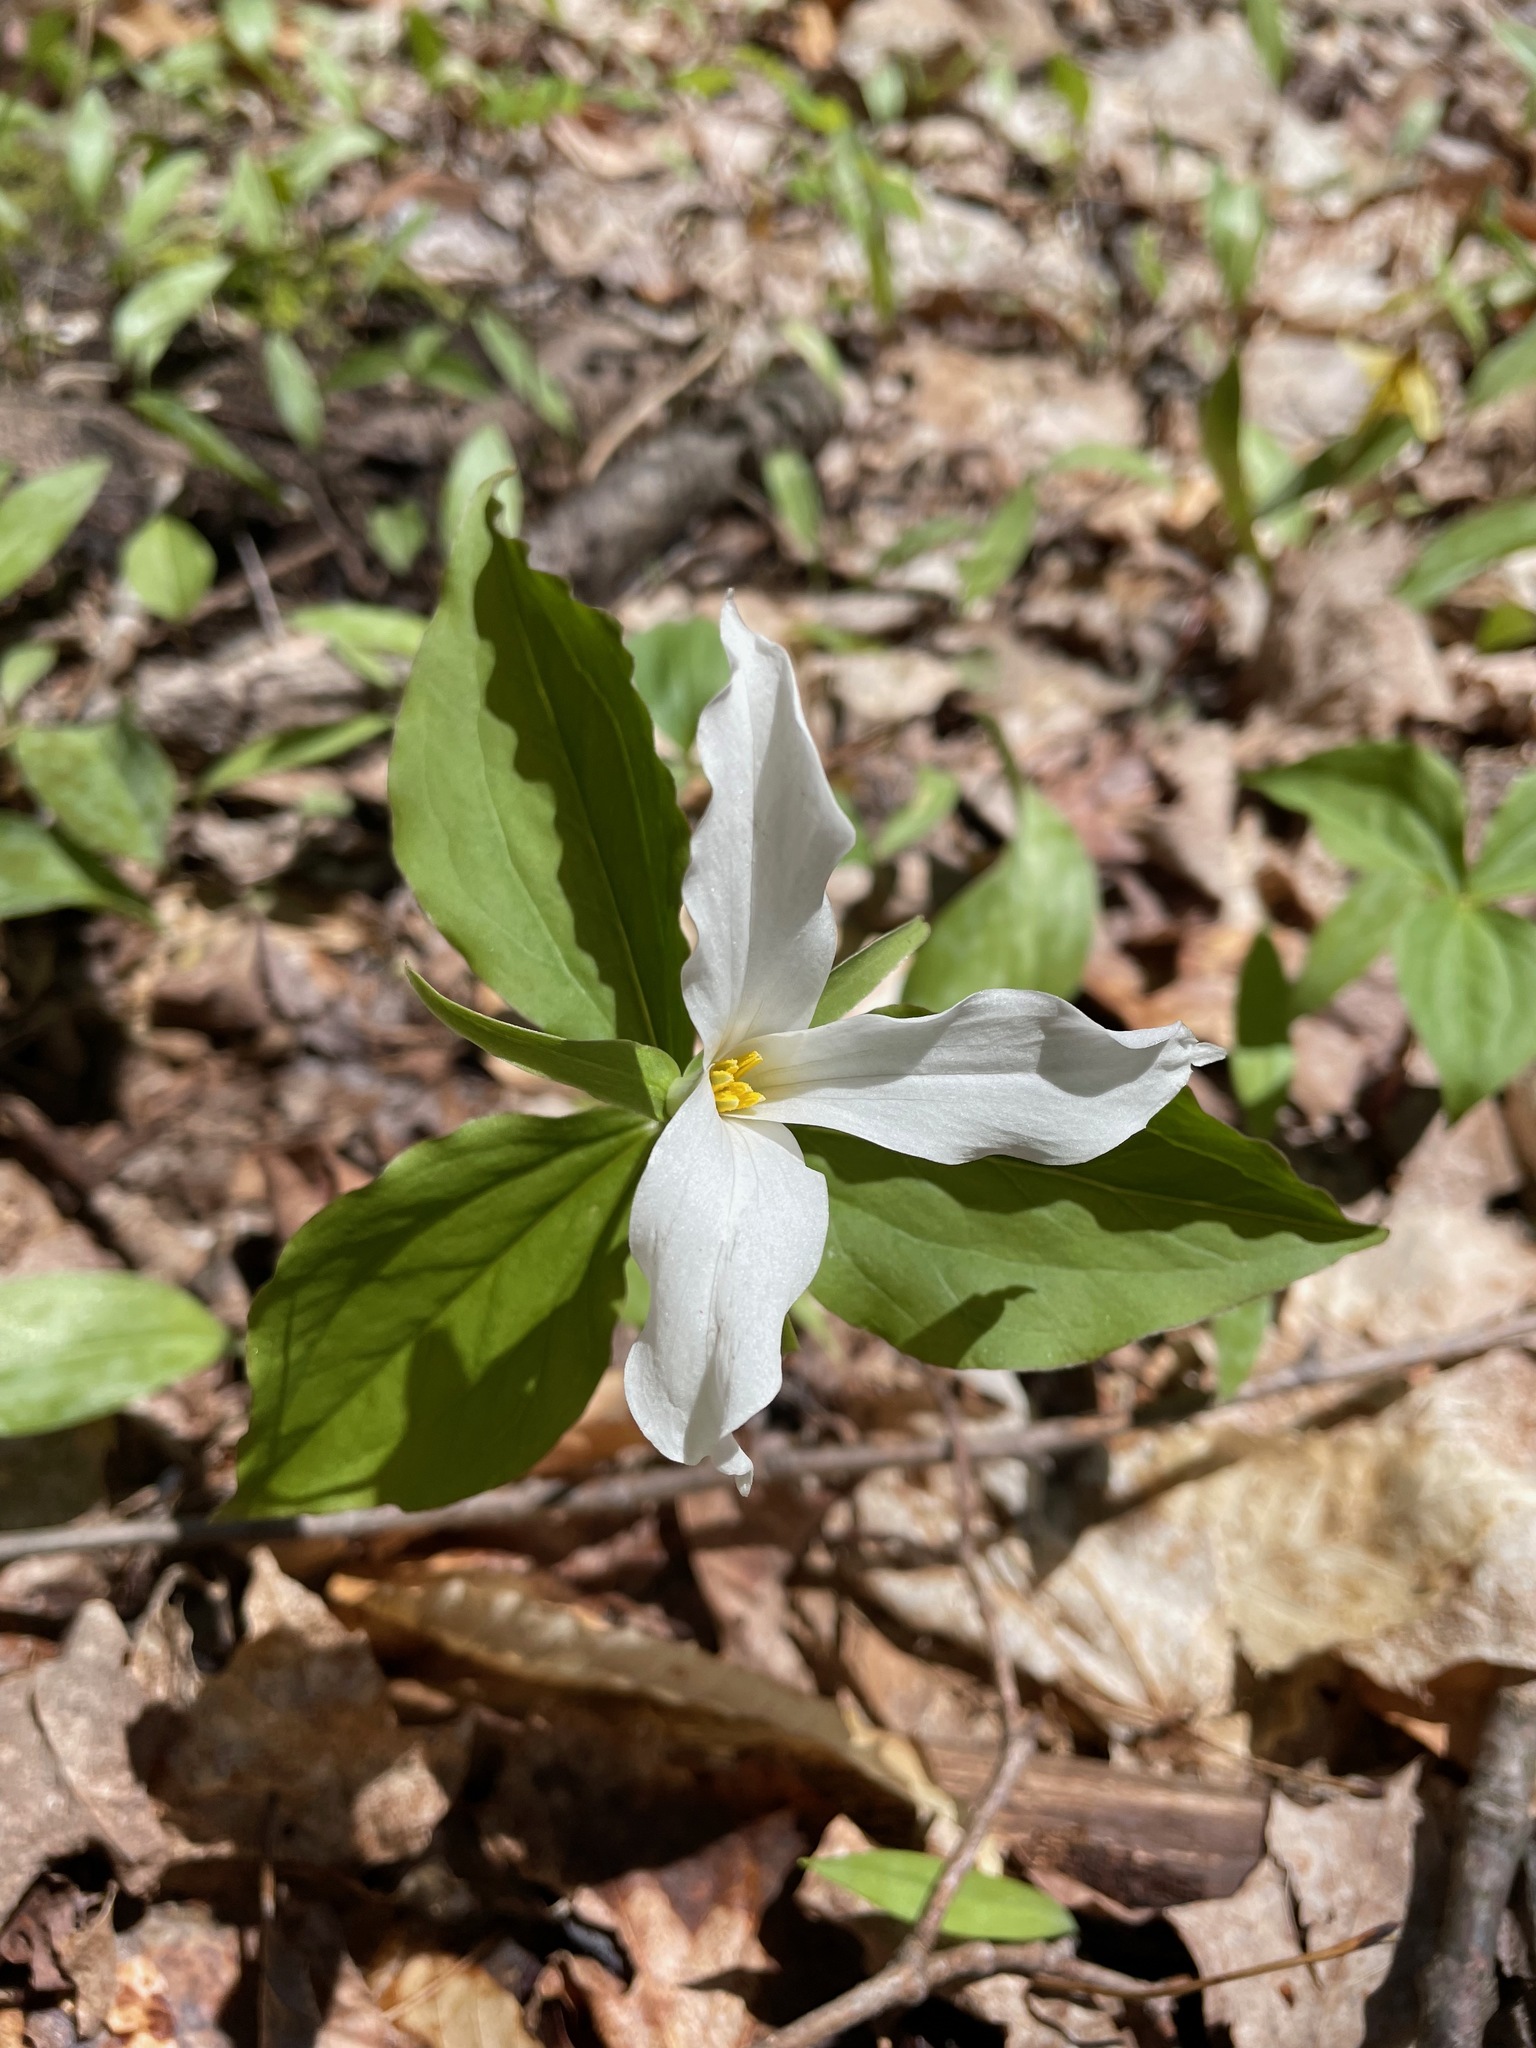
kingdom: Plantae
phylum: Tracheophyta
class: Liliopsida
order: Liliales
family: Melanthiaceae
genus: Trillium
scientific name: Trillium grandiflorum
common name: Great white trillium
